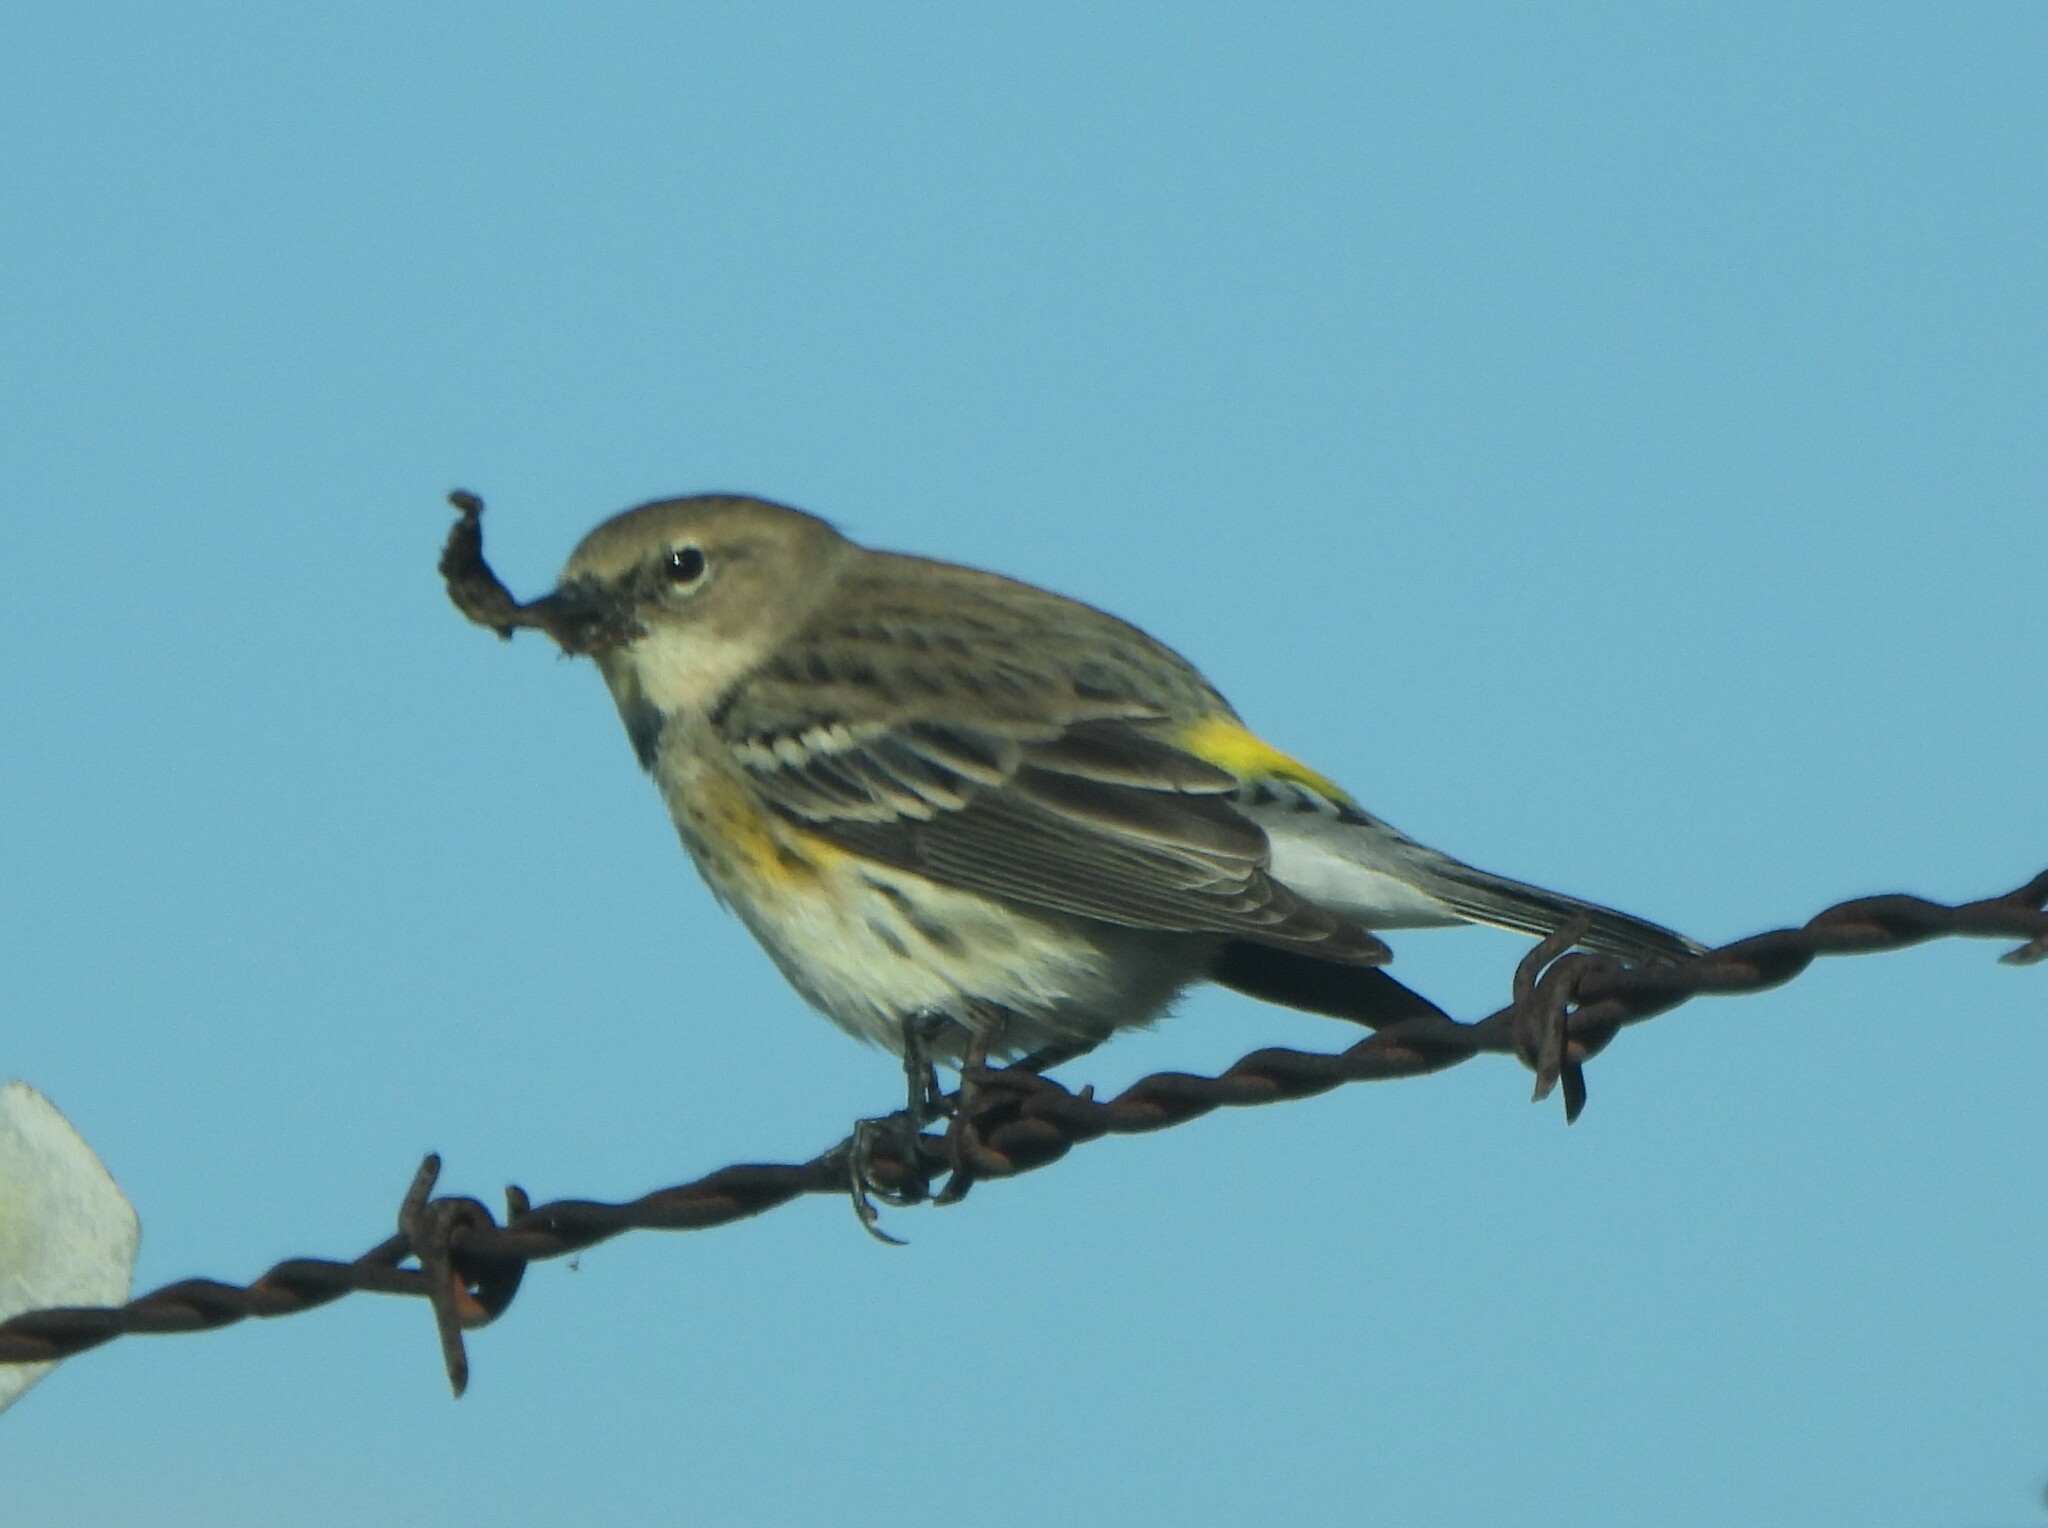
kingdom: Animalia
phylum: Chordata
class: Aves
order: Passeriformes
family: Parulidae
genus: Setophaga
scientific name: Setophaga coronata
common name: Myrtle warbler
